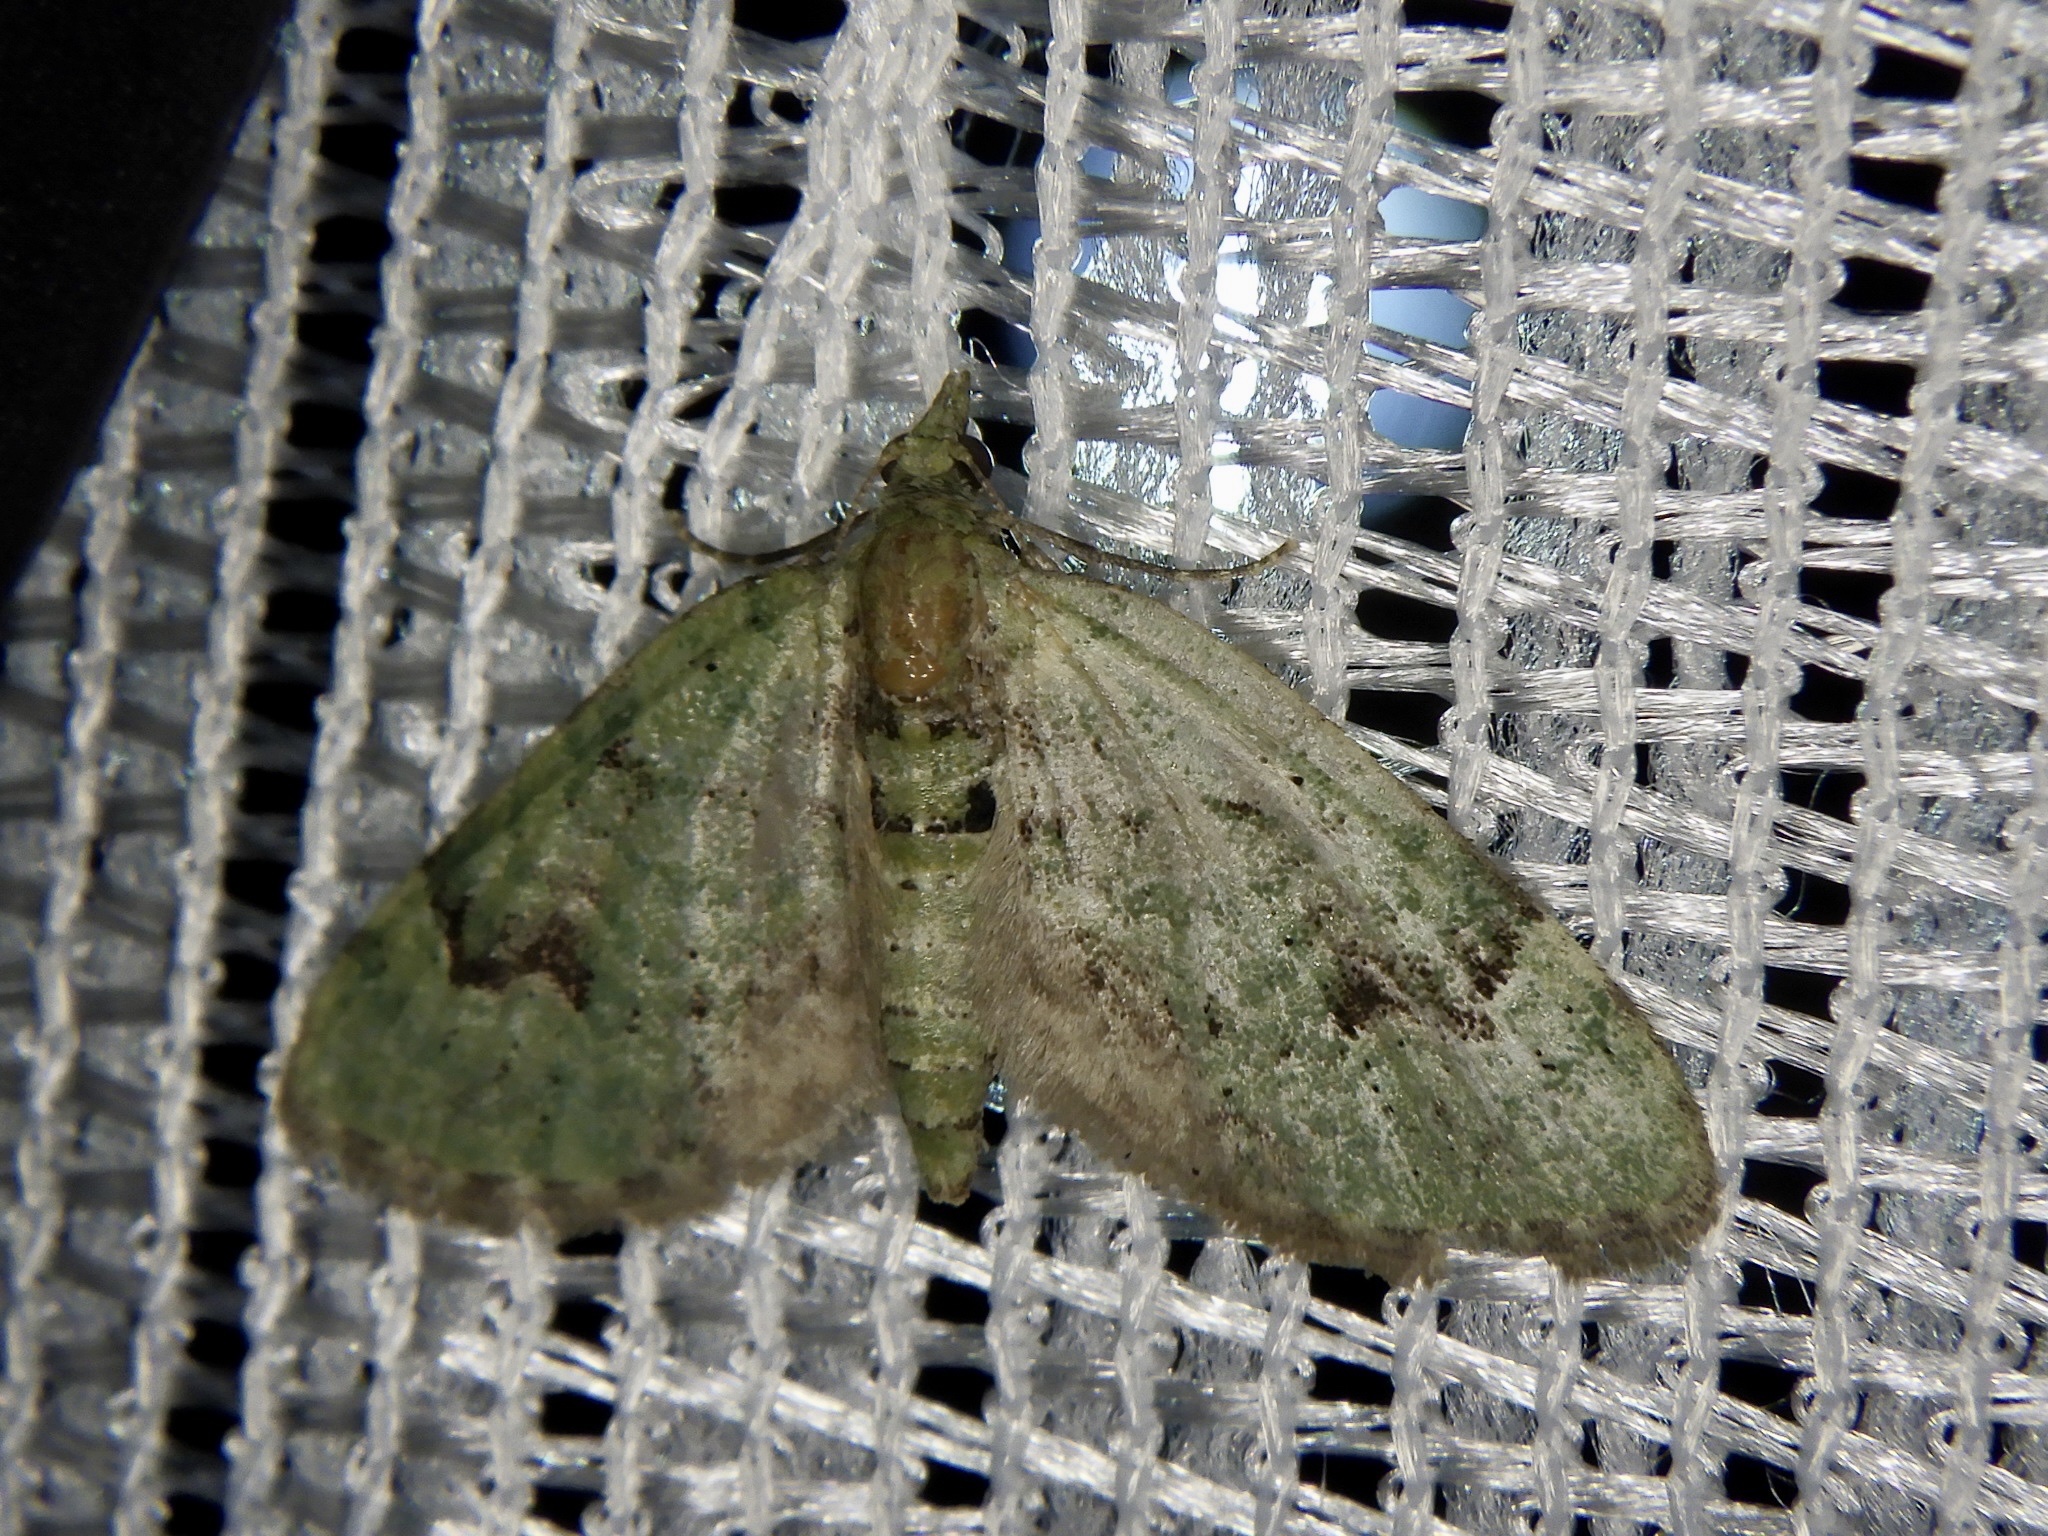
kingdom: Animalia
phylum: Arthropoda
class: Insecta
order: Lepidoptera
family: Geometridae
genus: Chloroclystis
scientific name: Chloroclystis v-ata
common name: V-pug
